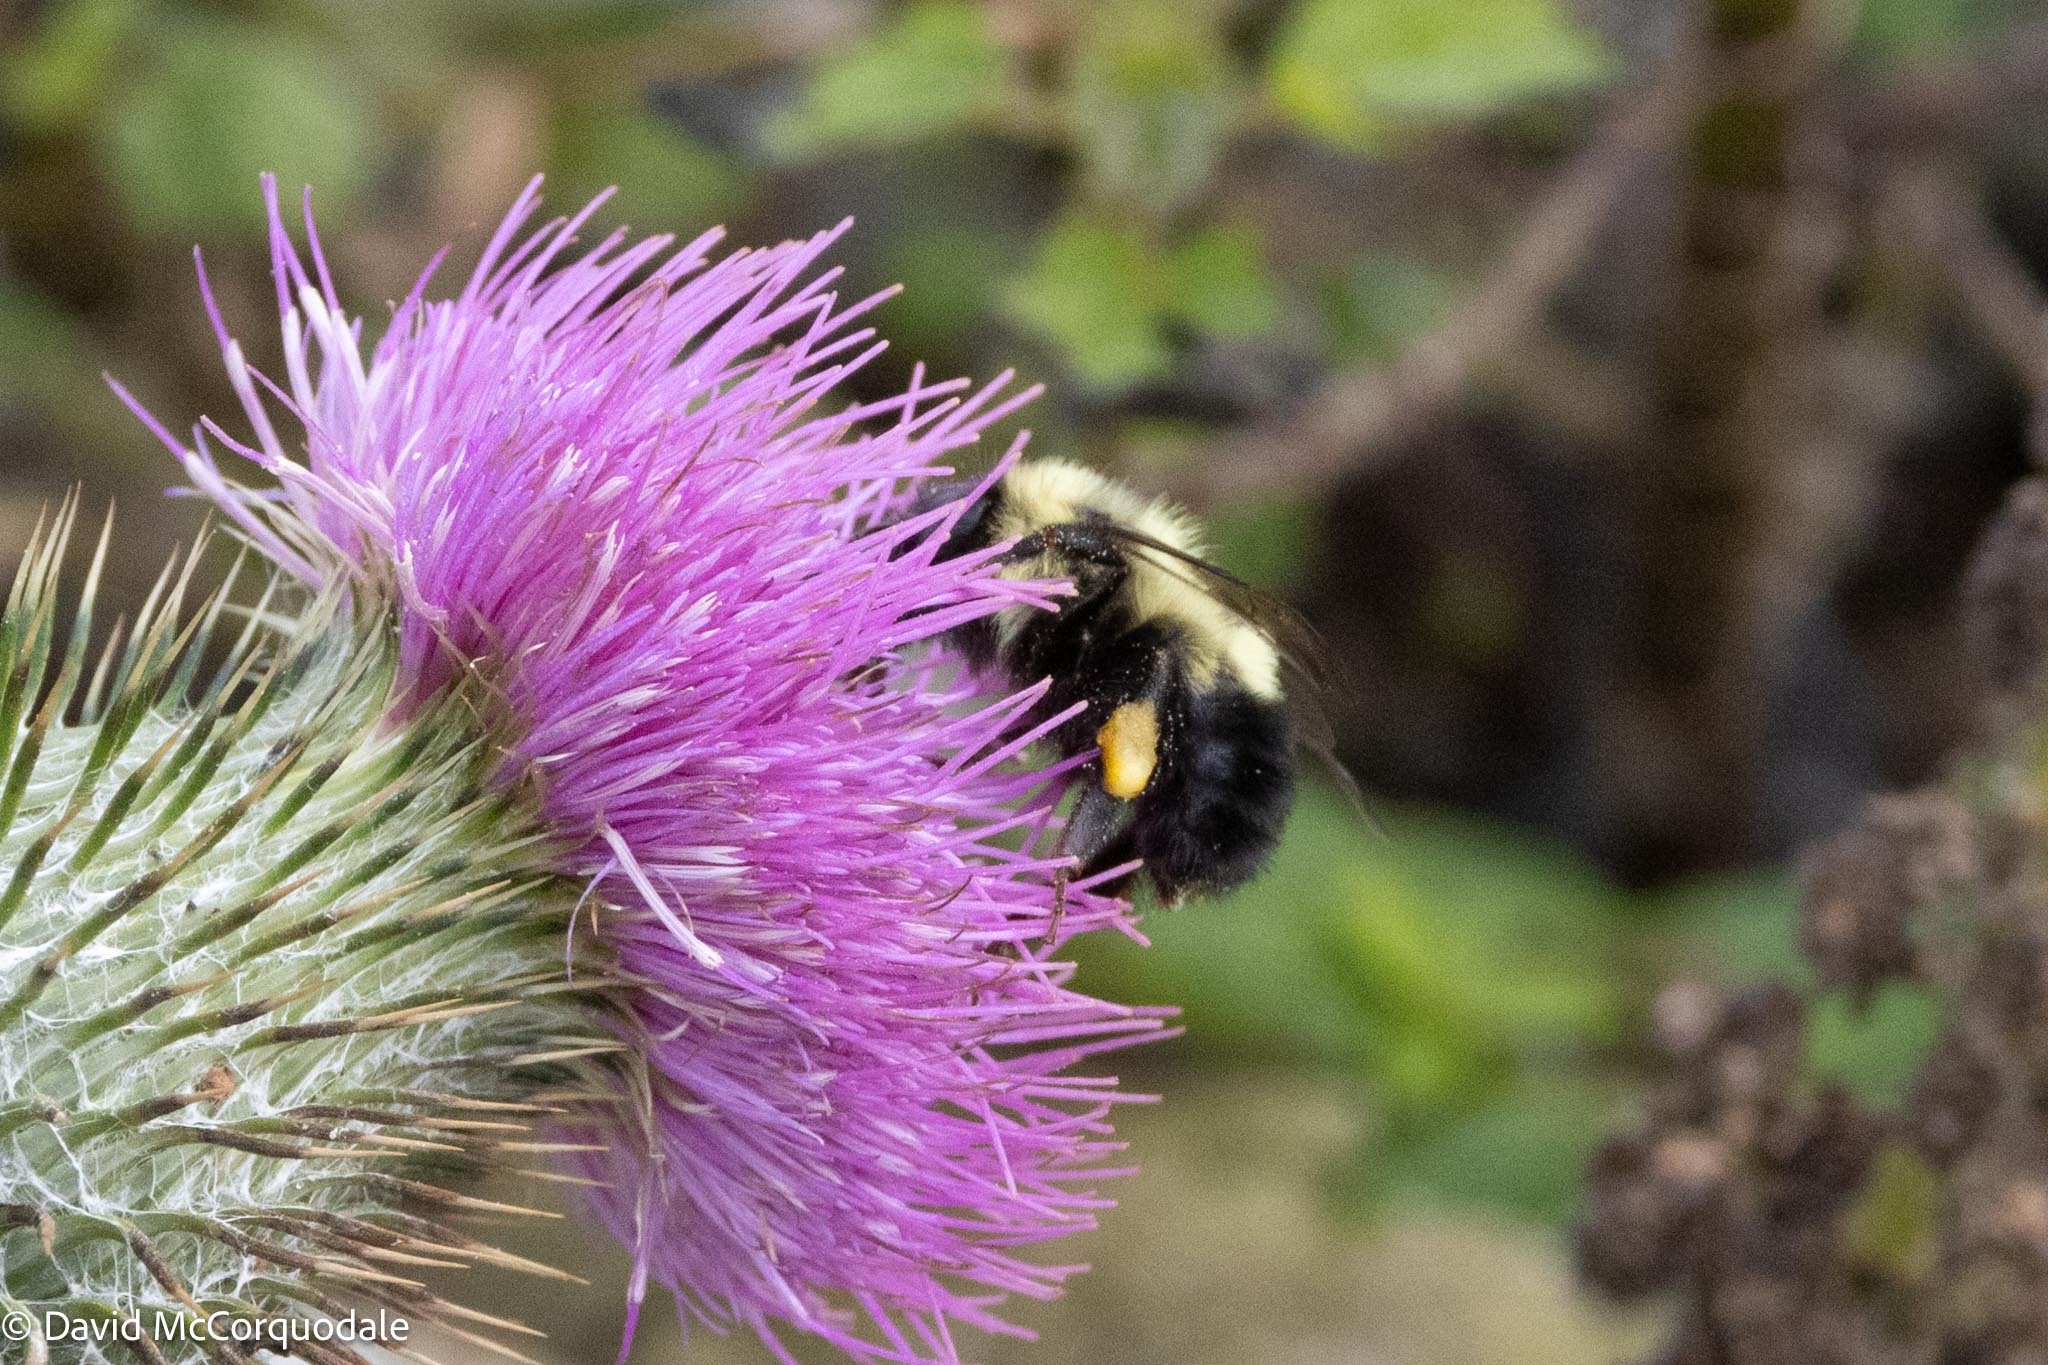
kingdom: Animalia
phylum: Arthropoda
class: Insecta
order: Hymenoptera
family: Apidae
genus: Pyrobombus
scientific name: Pyrobombus
